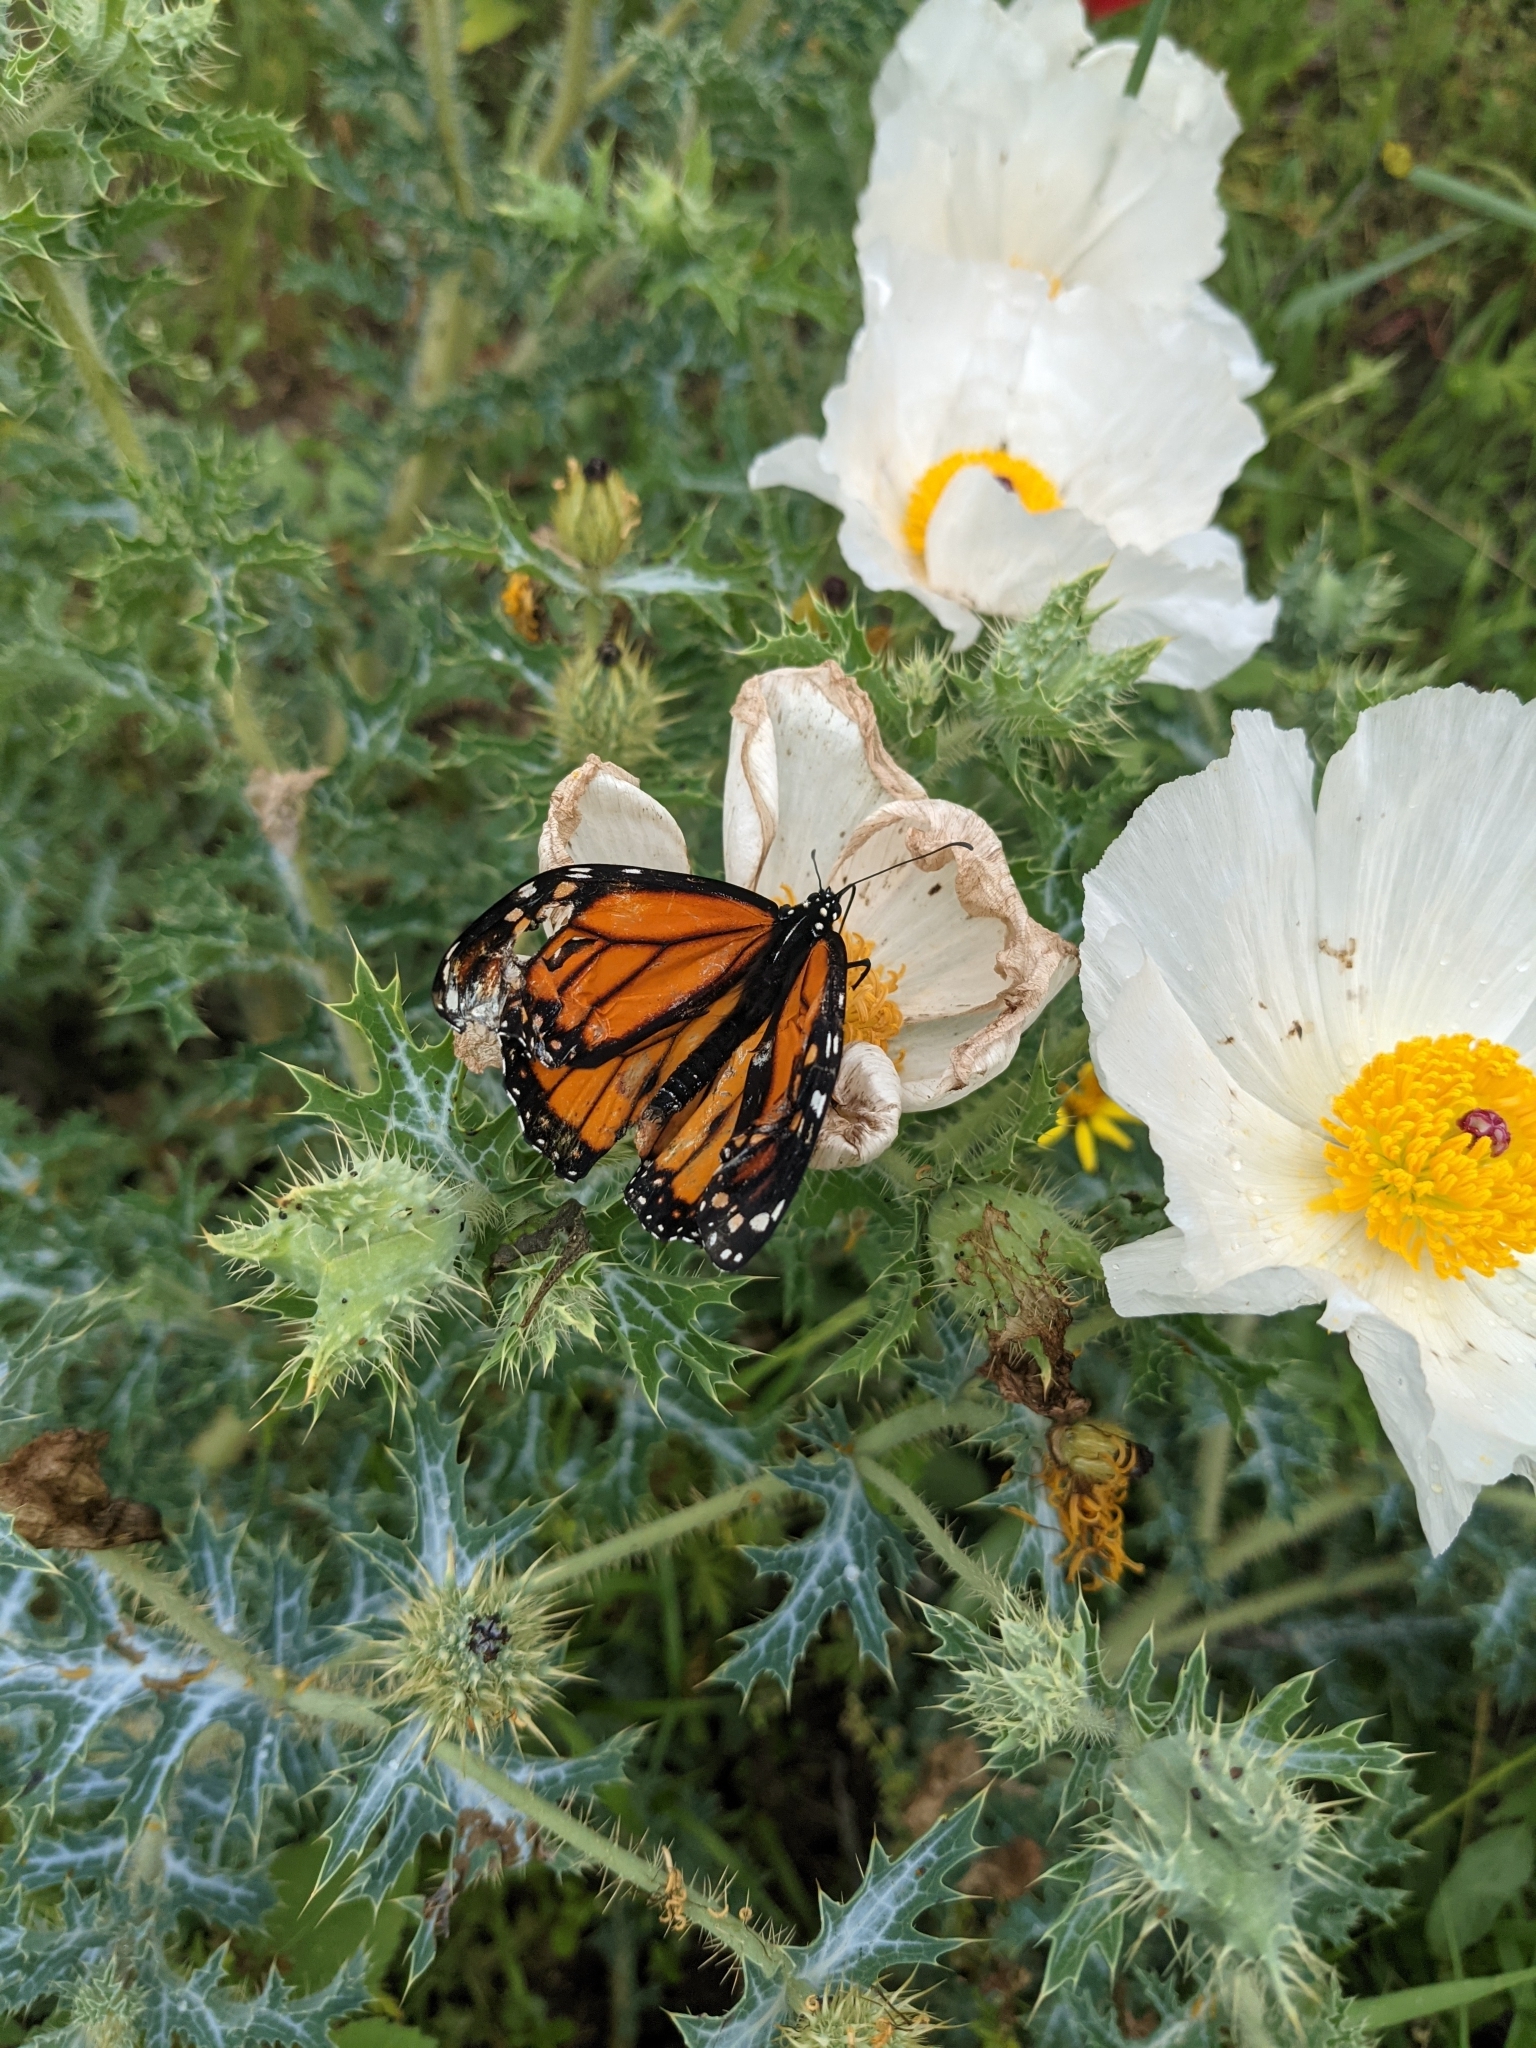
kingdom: Animalia
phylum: Arthropoda
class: Insecta
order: Lepidoptera
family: Nymphalidae
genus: Danaus
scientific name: Danaus plexippus
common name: Monarch
